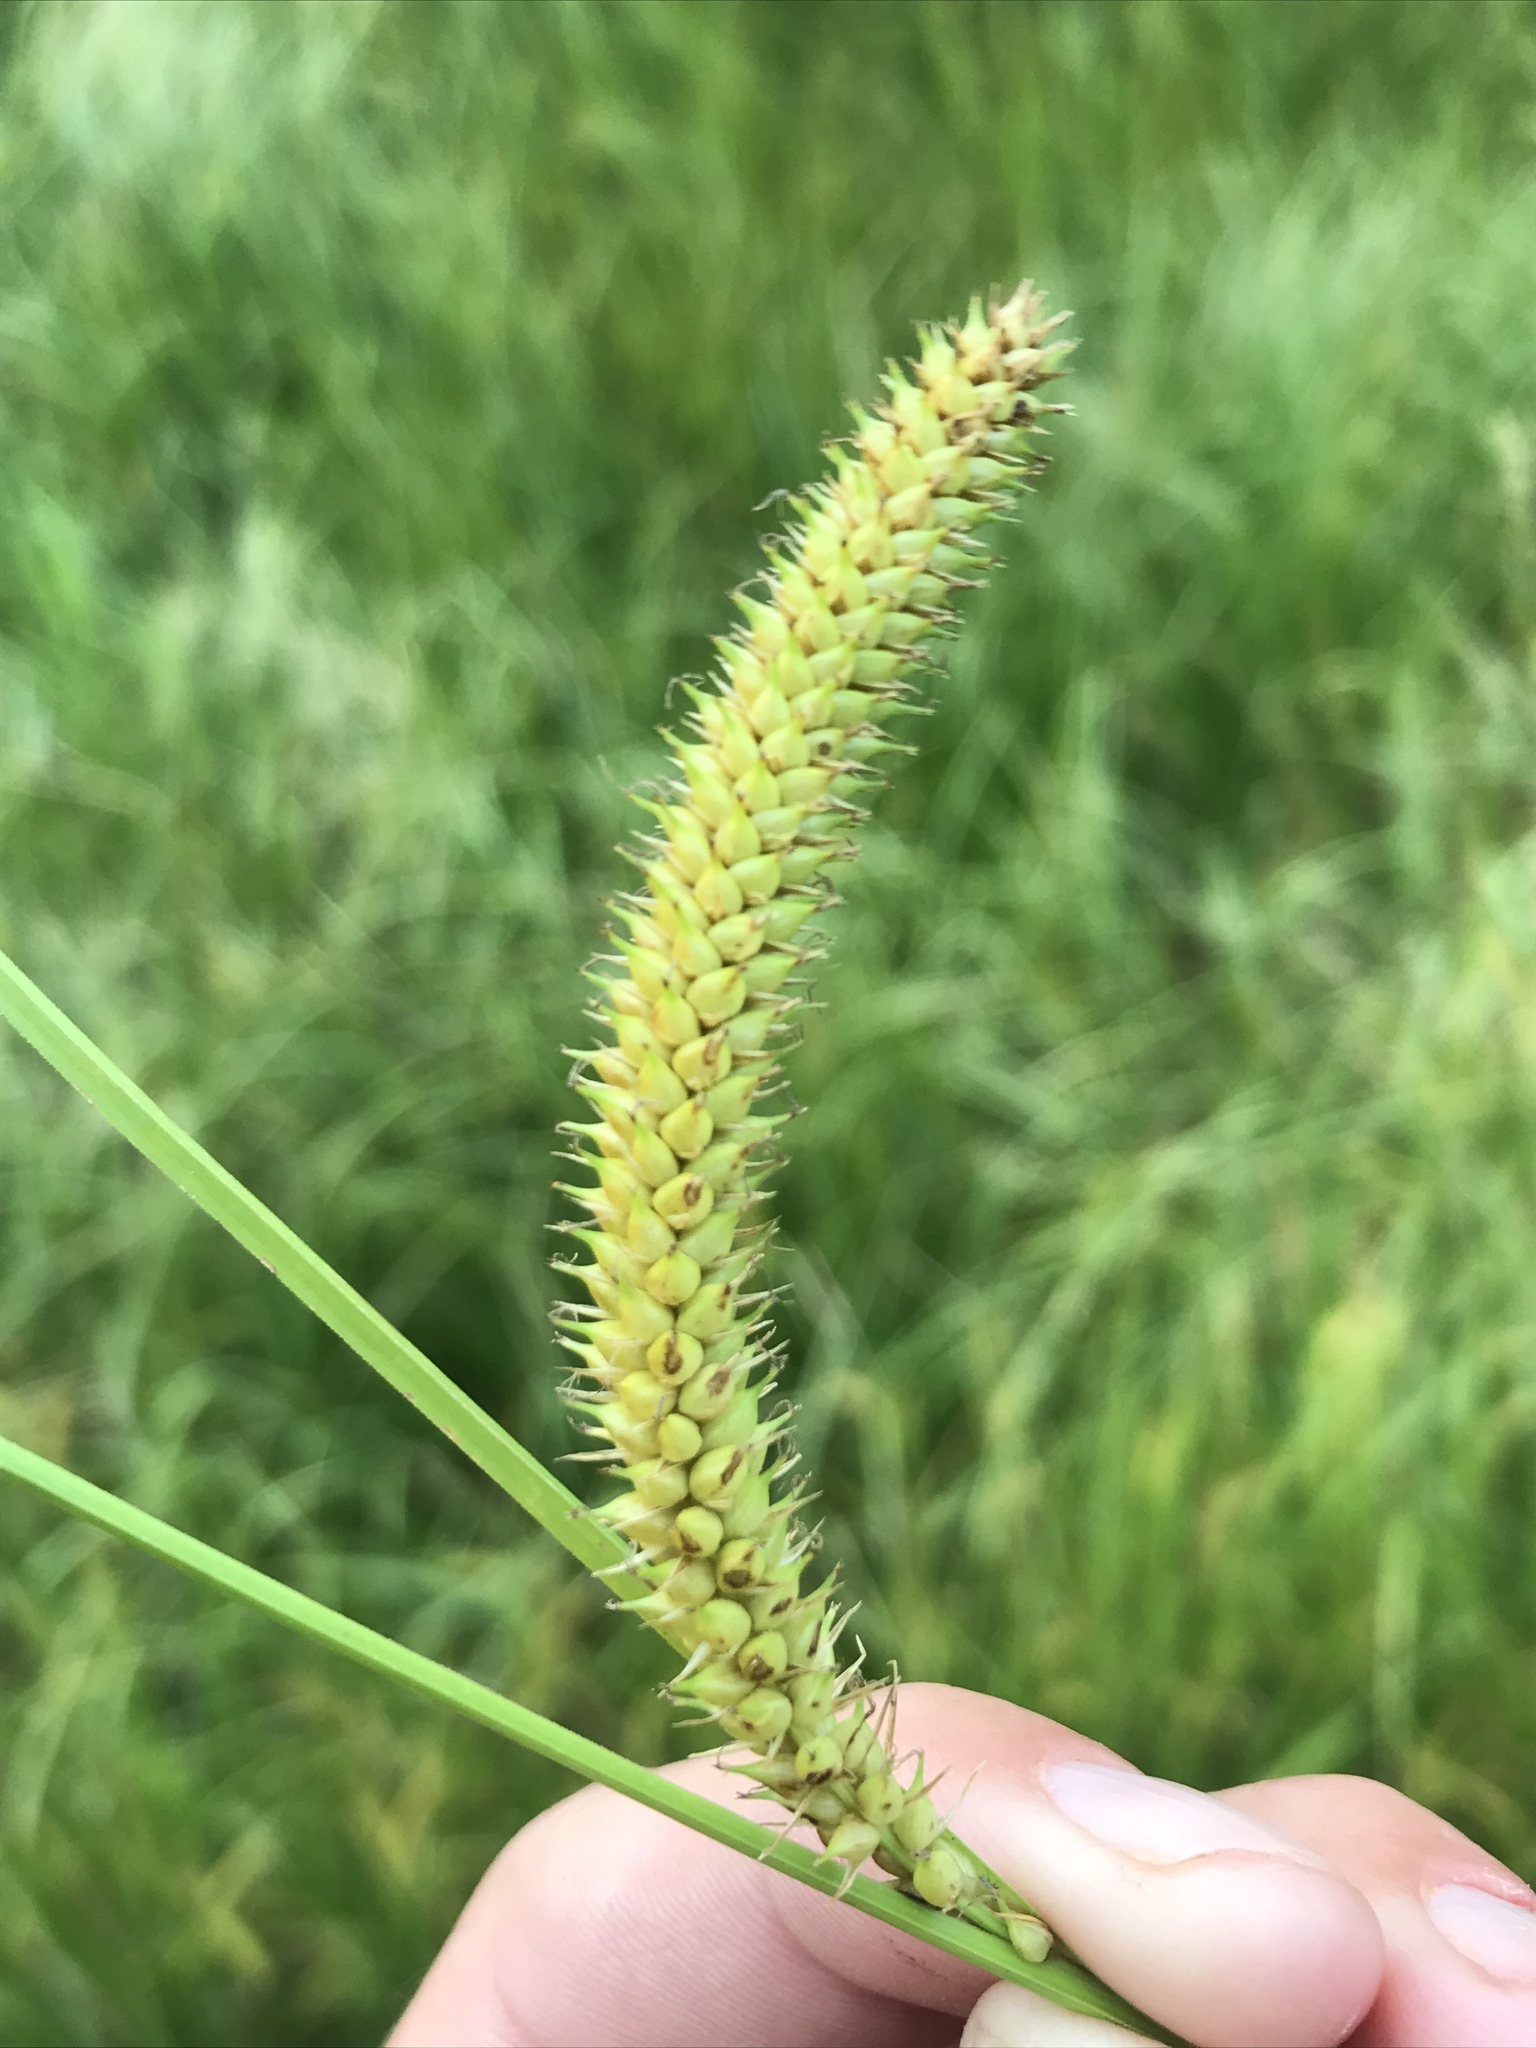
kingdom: Plantae
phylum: Tracheophyta
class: Liliopsida
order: Poales
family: Cyperaceae
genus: Carex
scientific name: Carex utriculata
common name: Beaked sedge
